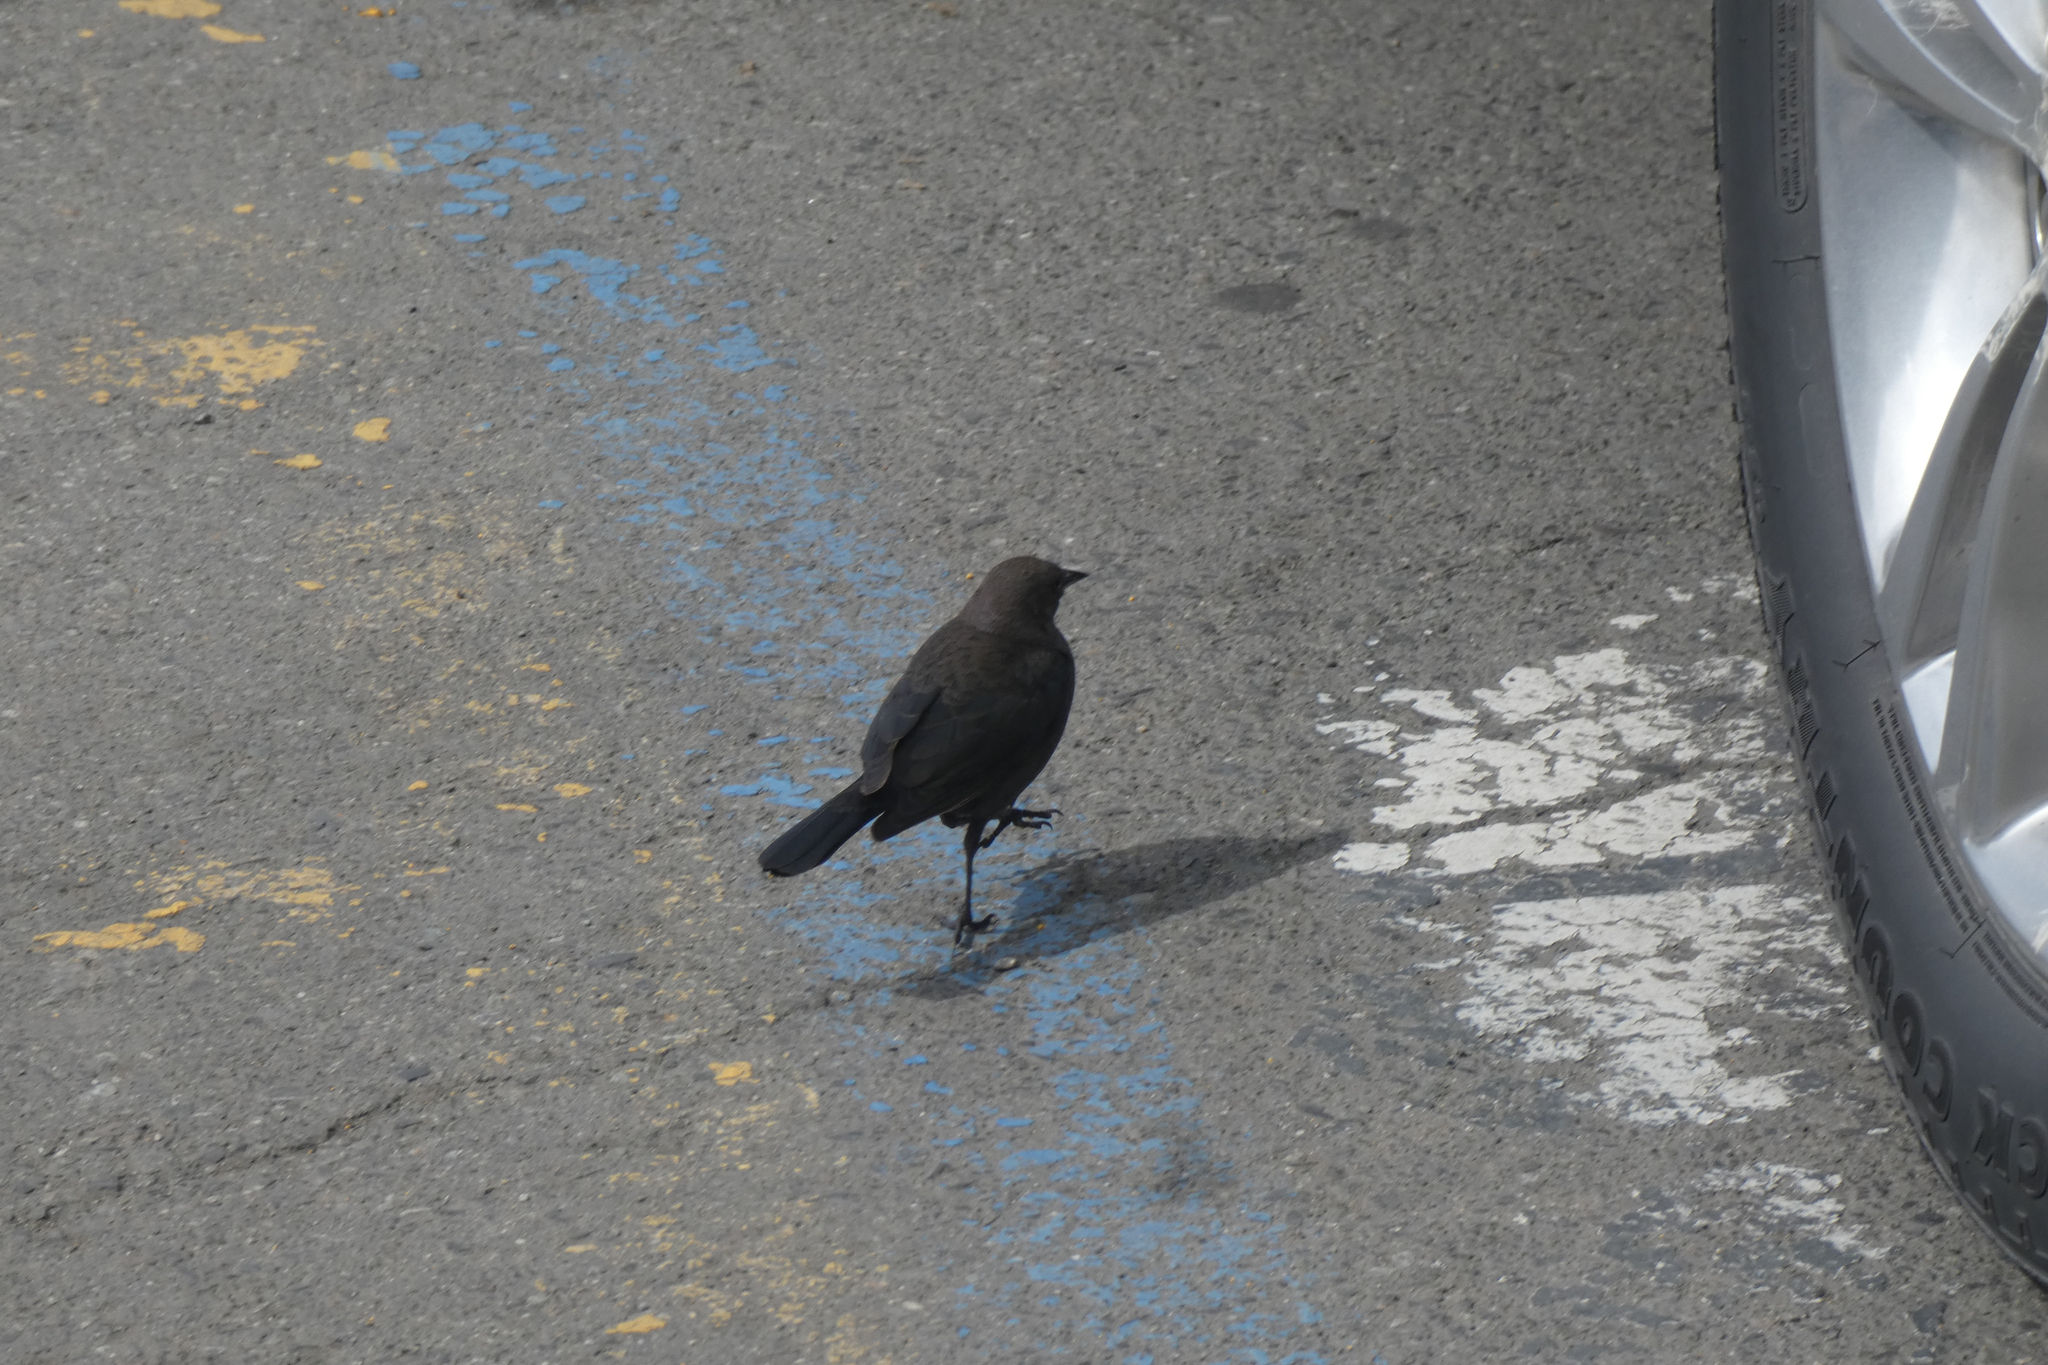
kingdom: Animalia
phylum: Chordata
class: Aves
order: Passeriformes
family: Icteridae
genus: Euphagus
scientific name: Euphagus cyanocephalus
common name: Brewer's blackbird
